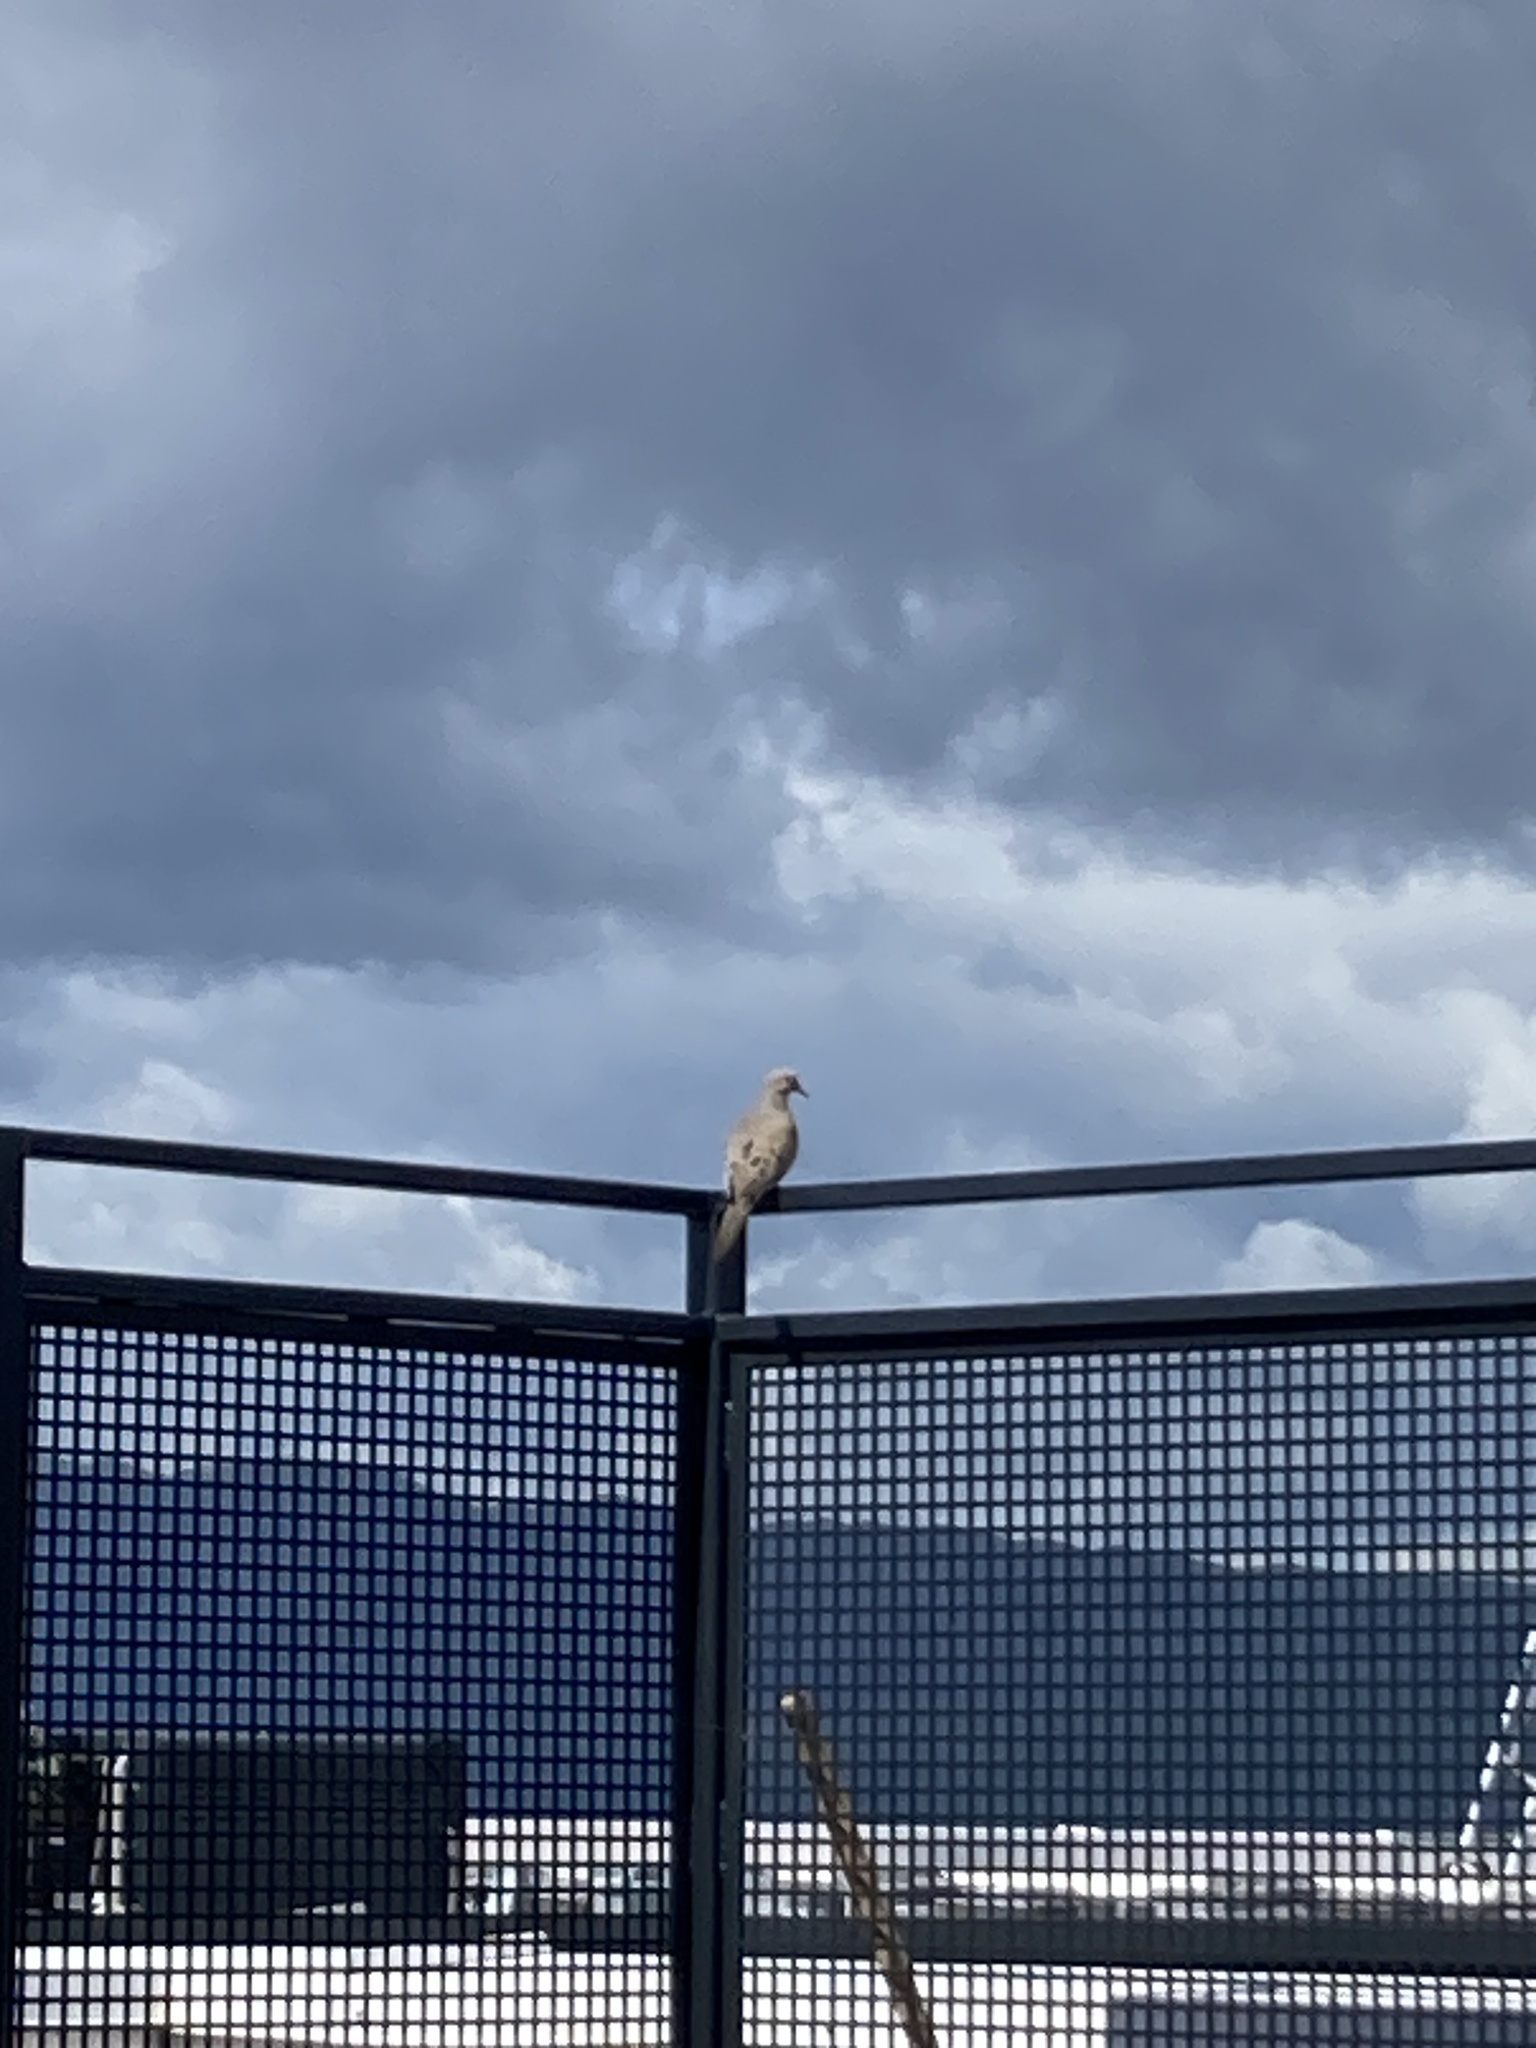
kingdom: Animalia
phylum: Chordata
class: Aves
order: Columbiformes
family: Columbidae
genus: Zenaida
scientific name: Zenaida macroura
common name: Mourning dove
